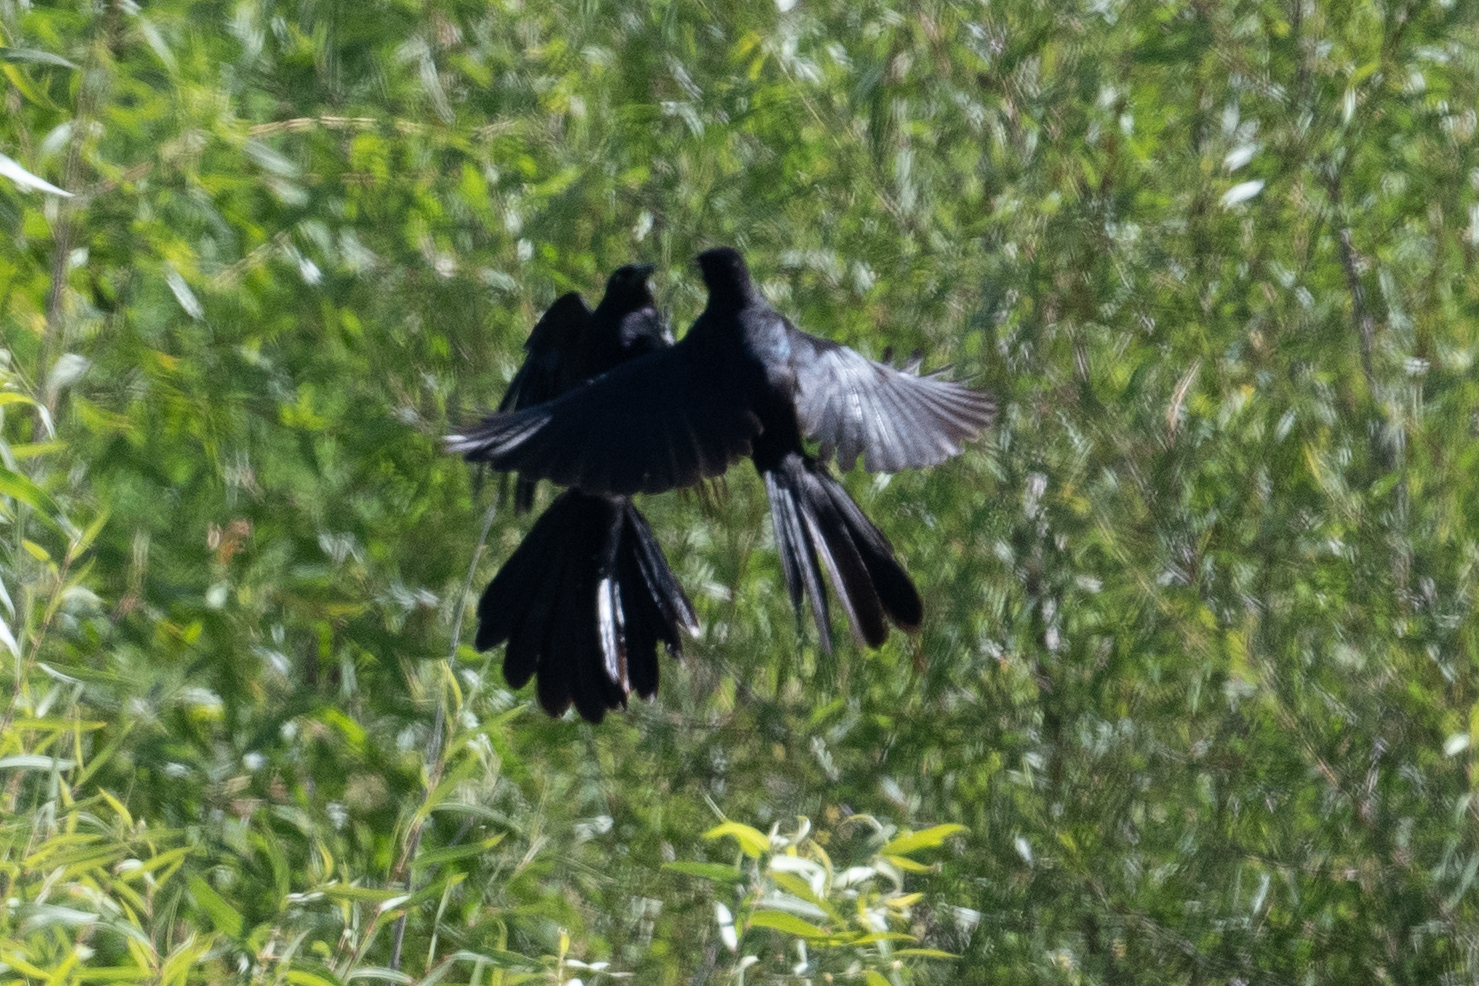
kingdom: Animalia
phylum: Chordata
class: Aves
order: Passeriformes
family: Icteridae
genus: Quiscalus
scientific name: Quiscalus mexicanus
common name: Great-tailed grackle
